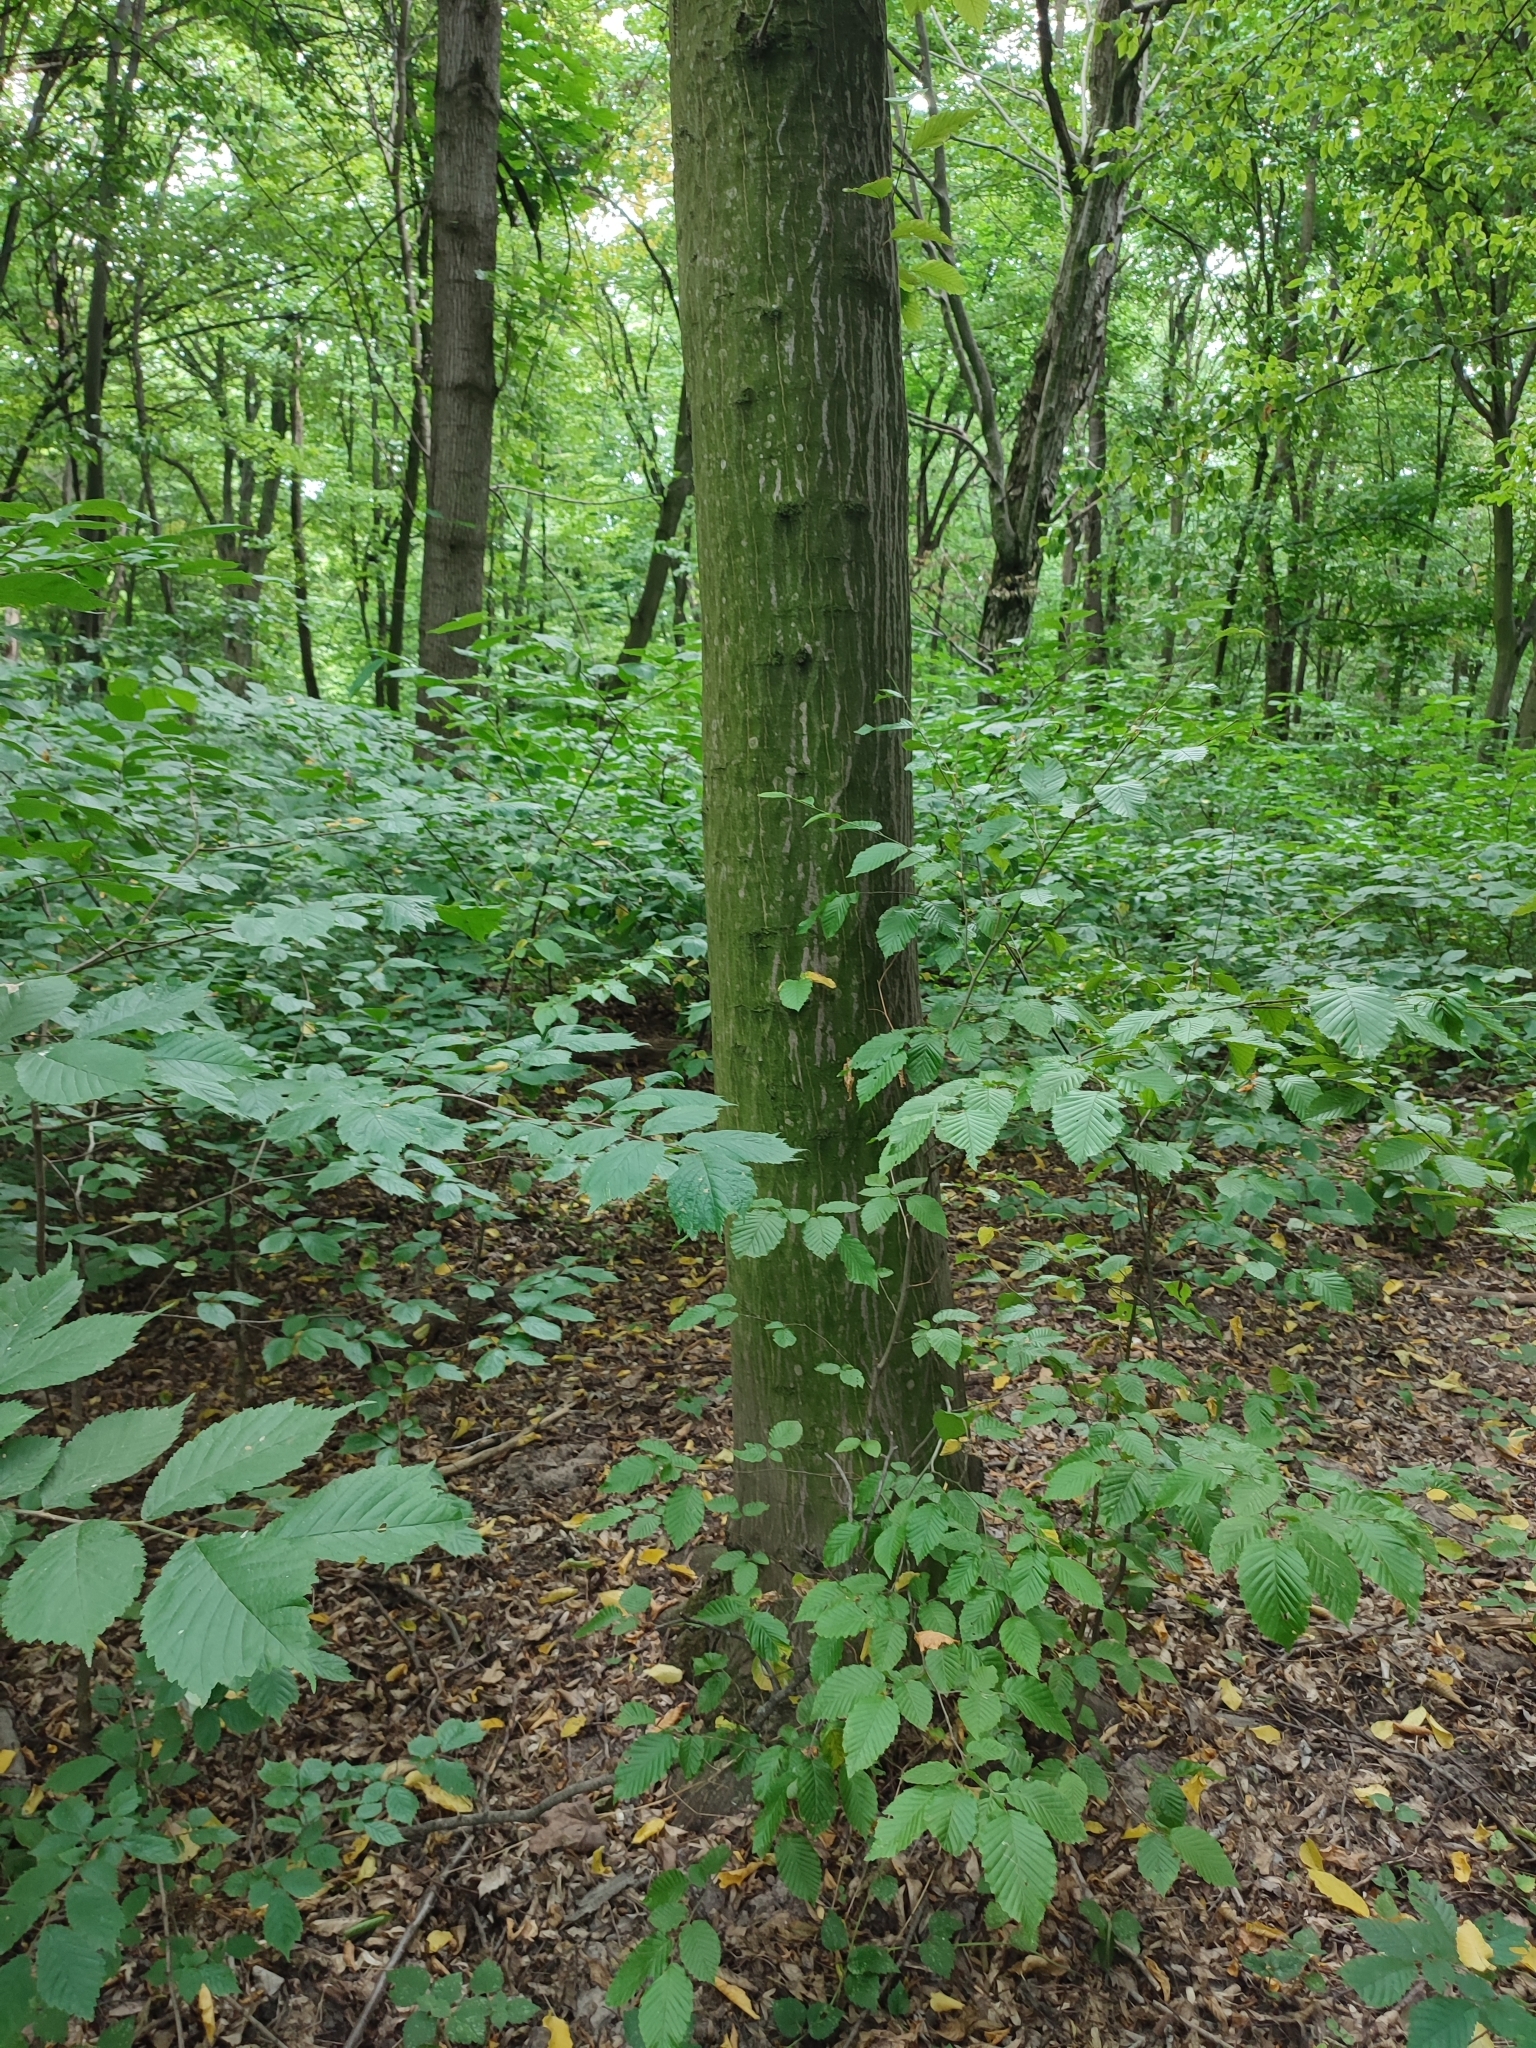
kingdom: Plantae
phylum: Tracheophyta
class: Magnoliopsida
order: Fagales
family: Betulaceae
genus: Carpinus
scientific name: Carpinus betulus
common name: Hornbeam
